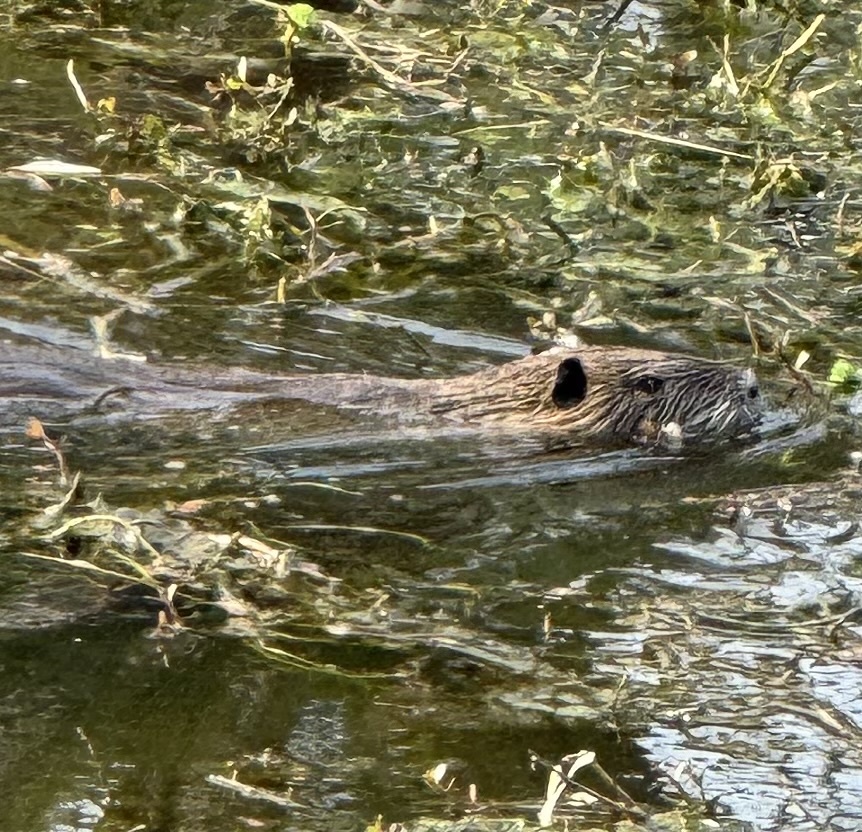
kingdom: Animalia
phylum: Chordata
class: Mammalia
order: Rodentia
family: Myocastoridae
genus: Myocastor
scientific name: Myocastor coypus
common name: Coypu
